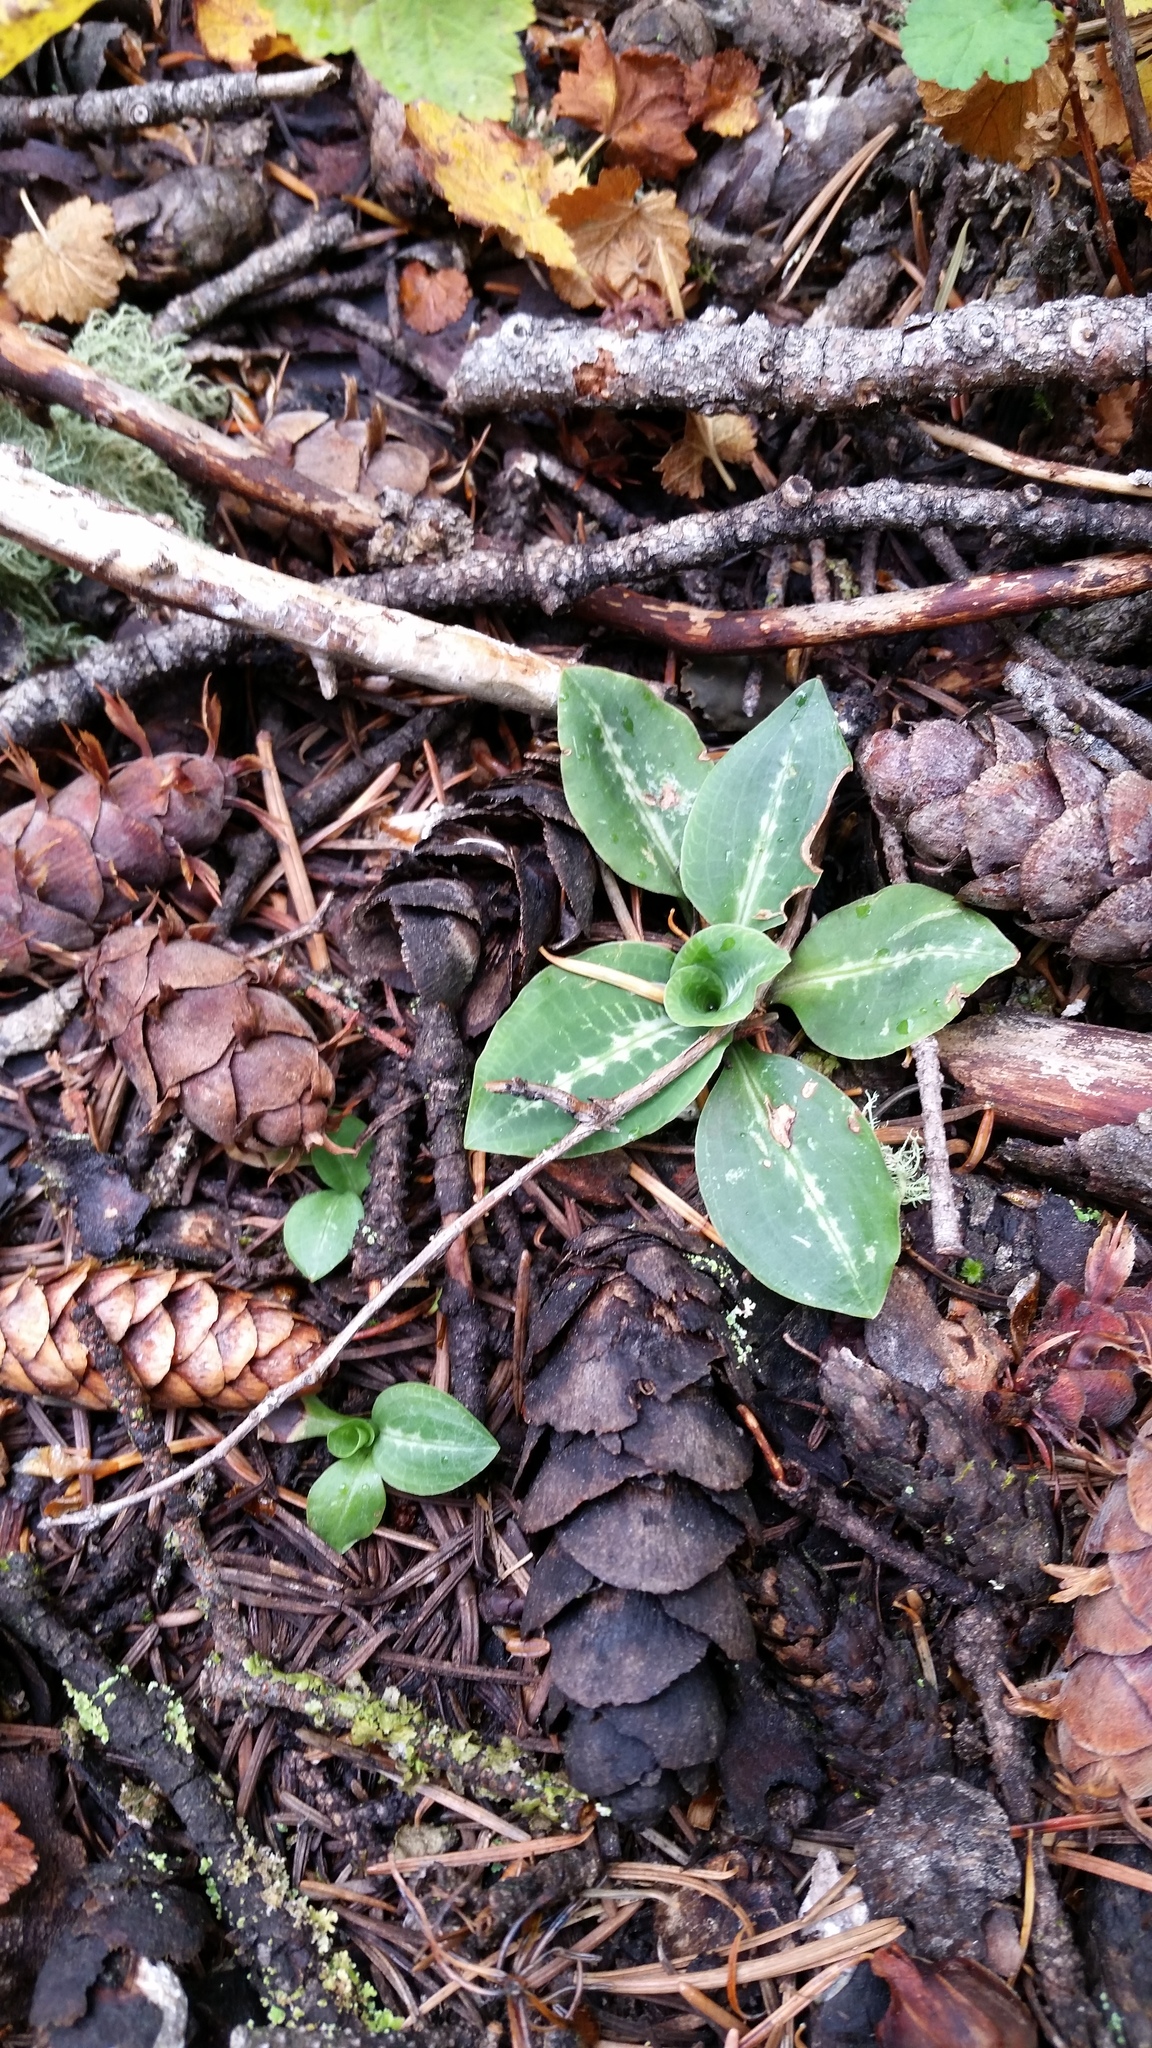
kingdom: Plantae
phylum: Tracheophyta
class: Liliopsida
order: Asparagales
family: Orchidaceae
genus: Goodyera
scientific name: Goodyera oblongifolia
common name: Giant rattlesnake-plantain
